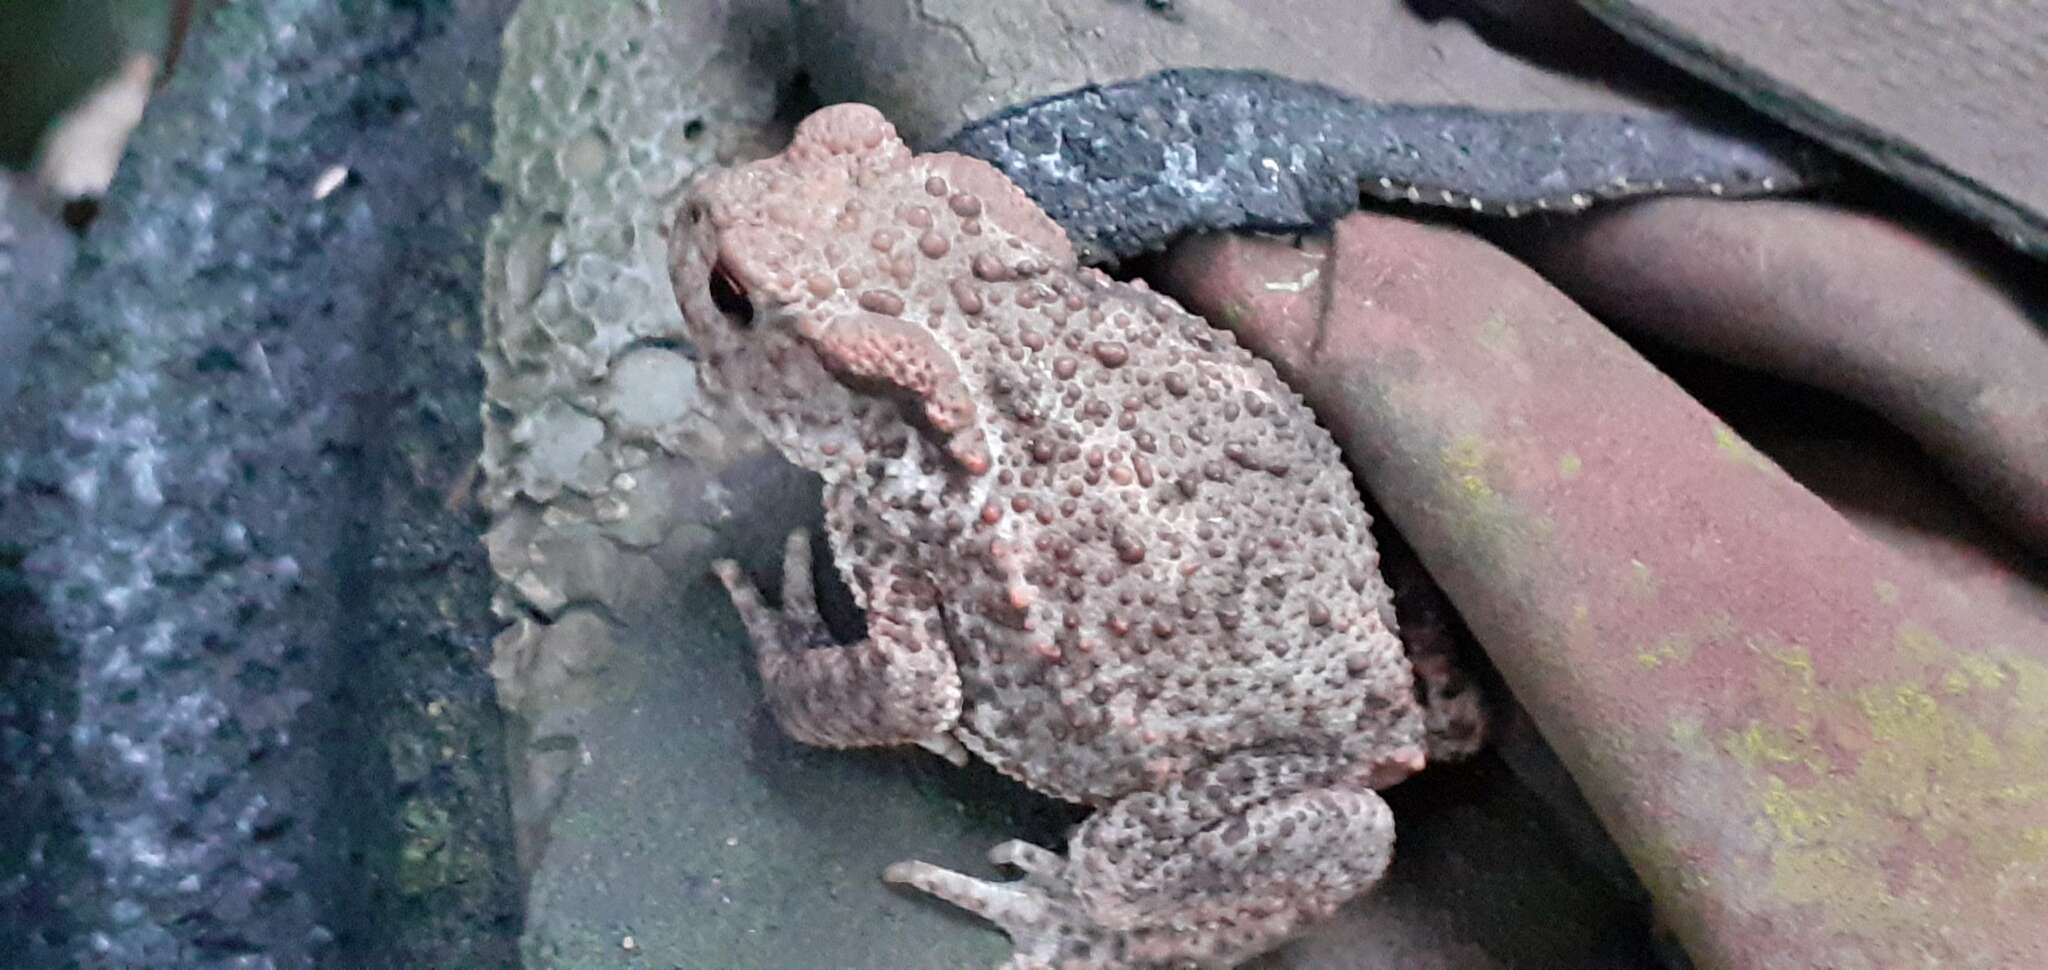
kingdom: Animalia
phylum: Chordata
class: Amphibia
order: Anura
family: Bufonidae
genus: Bufo
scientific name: Bufo bufo
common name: Common toad
